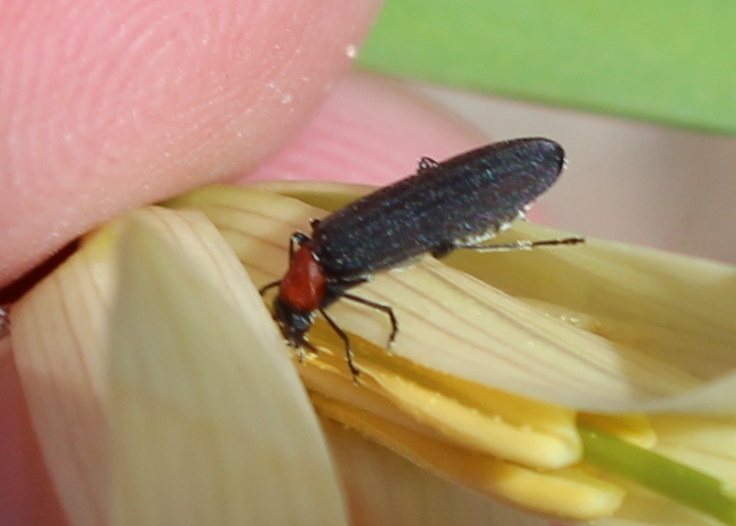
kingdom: Animalia
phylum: Arthropoda
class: Insecta
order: Coleoptera
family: Oedemeridae
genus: Ischnomera
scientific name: Ischnomera
